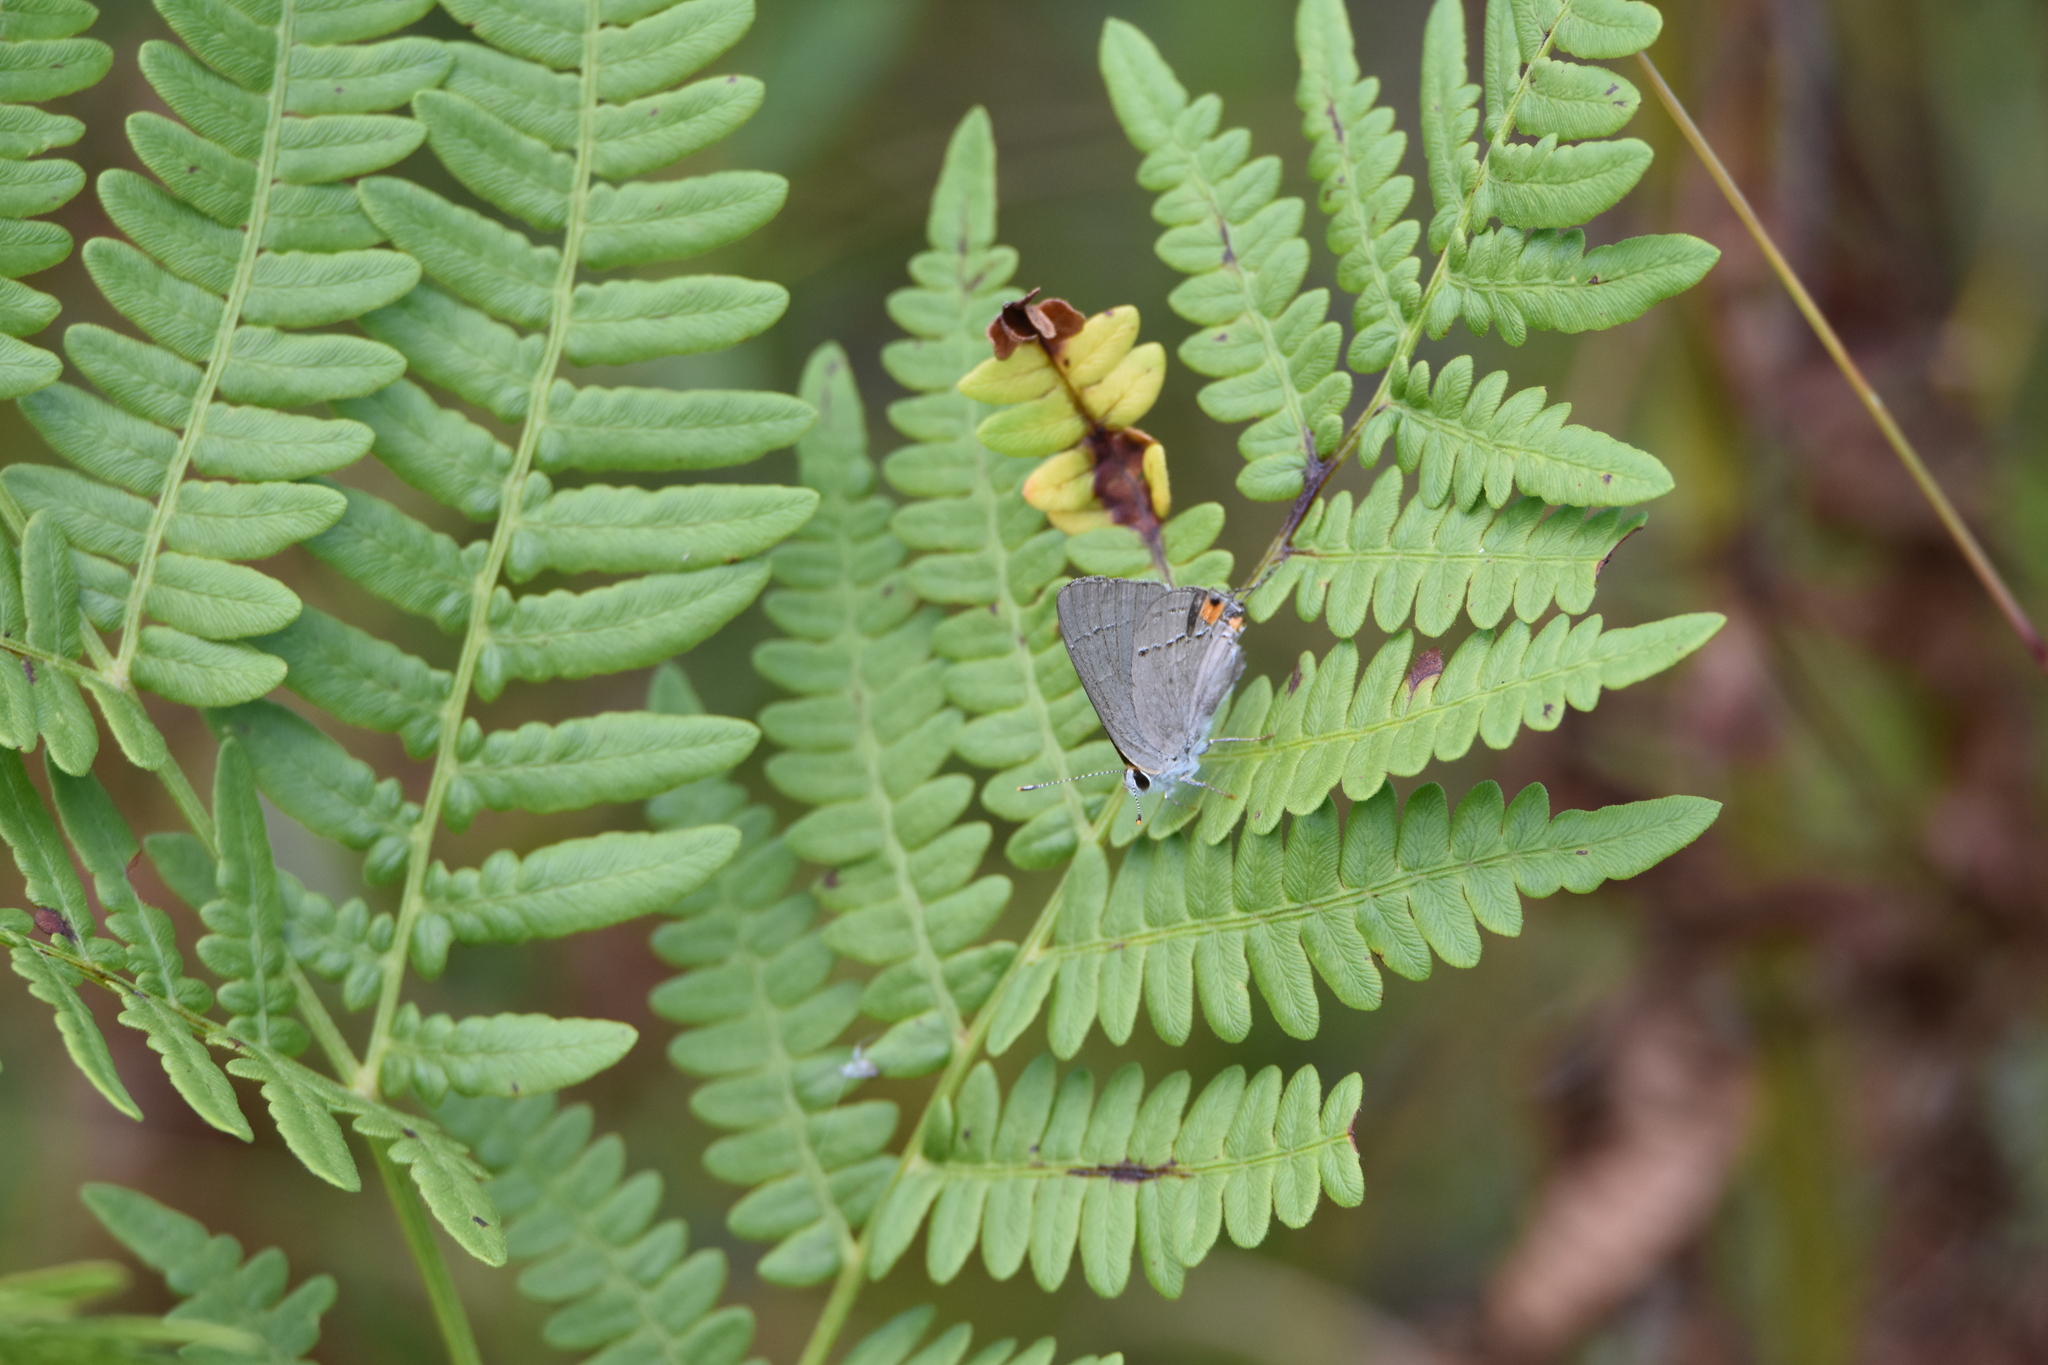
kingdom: Animalia
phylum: Arthropoda
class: Insecta
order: Lepidoptera
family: Lycaenidae
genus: Strymon
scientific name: Strymon melinus
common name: Gray hairstreak
